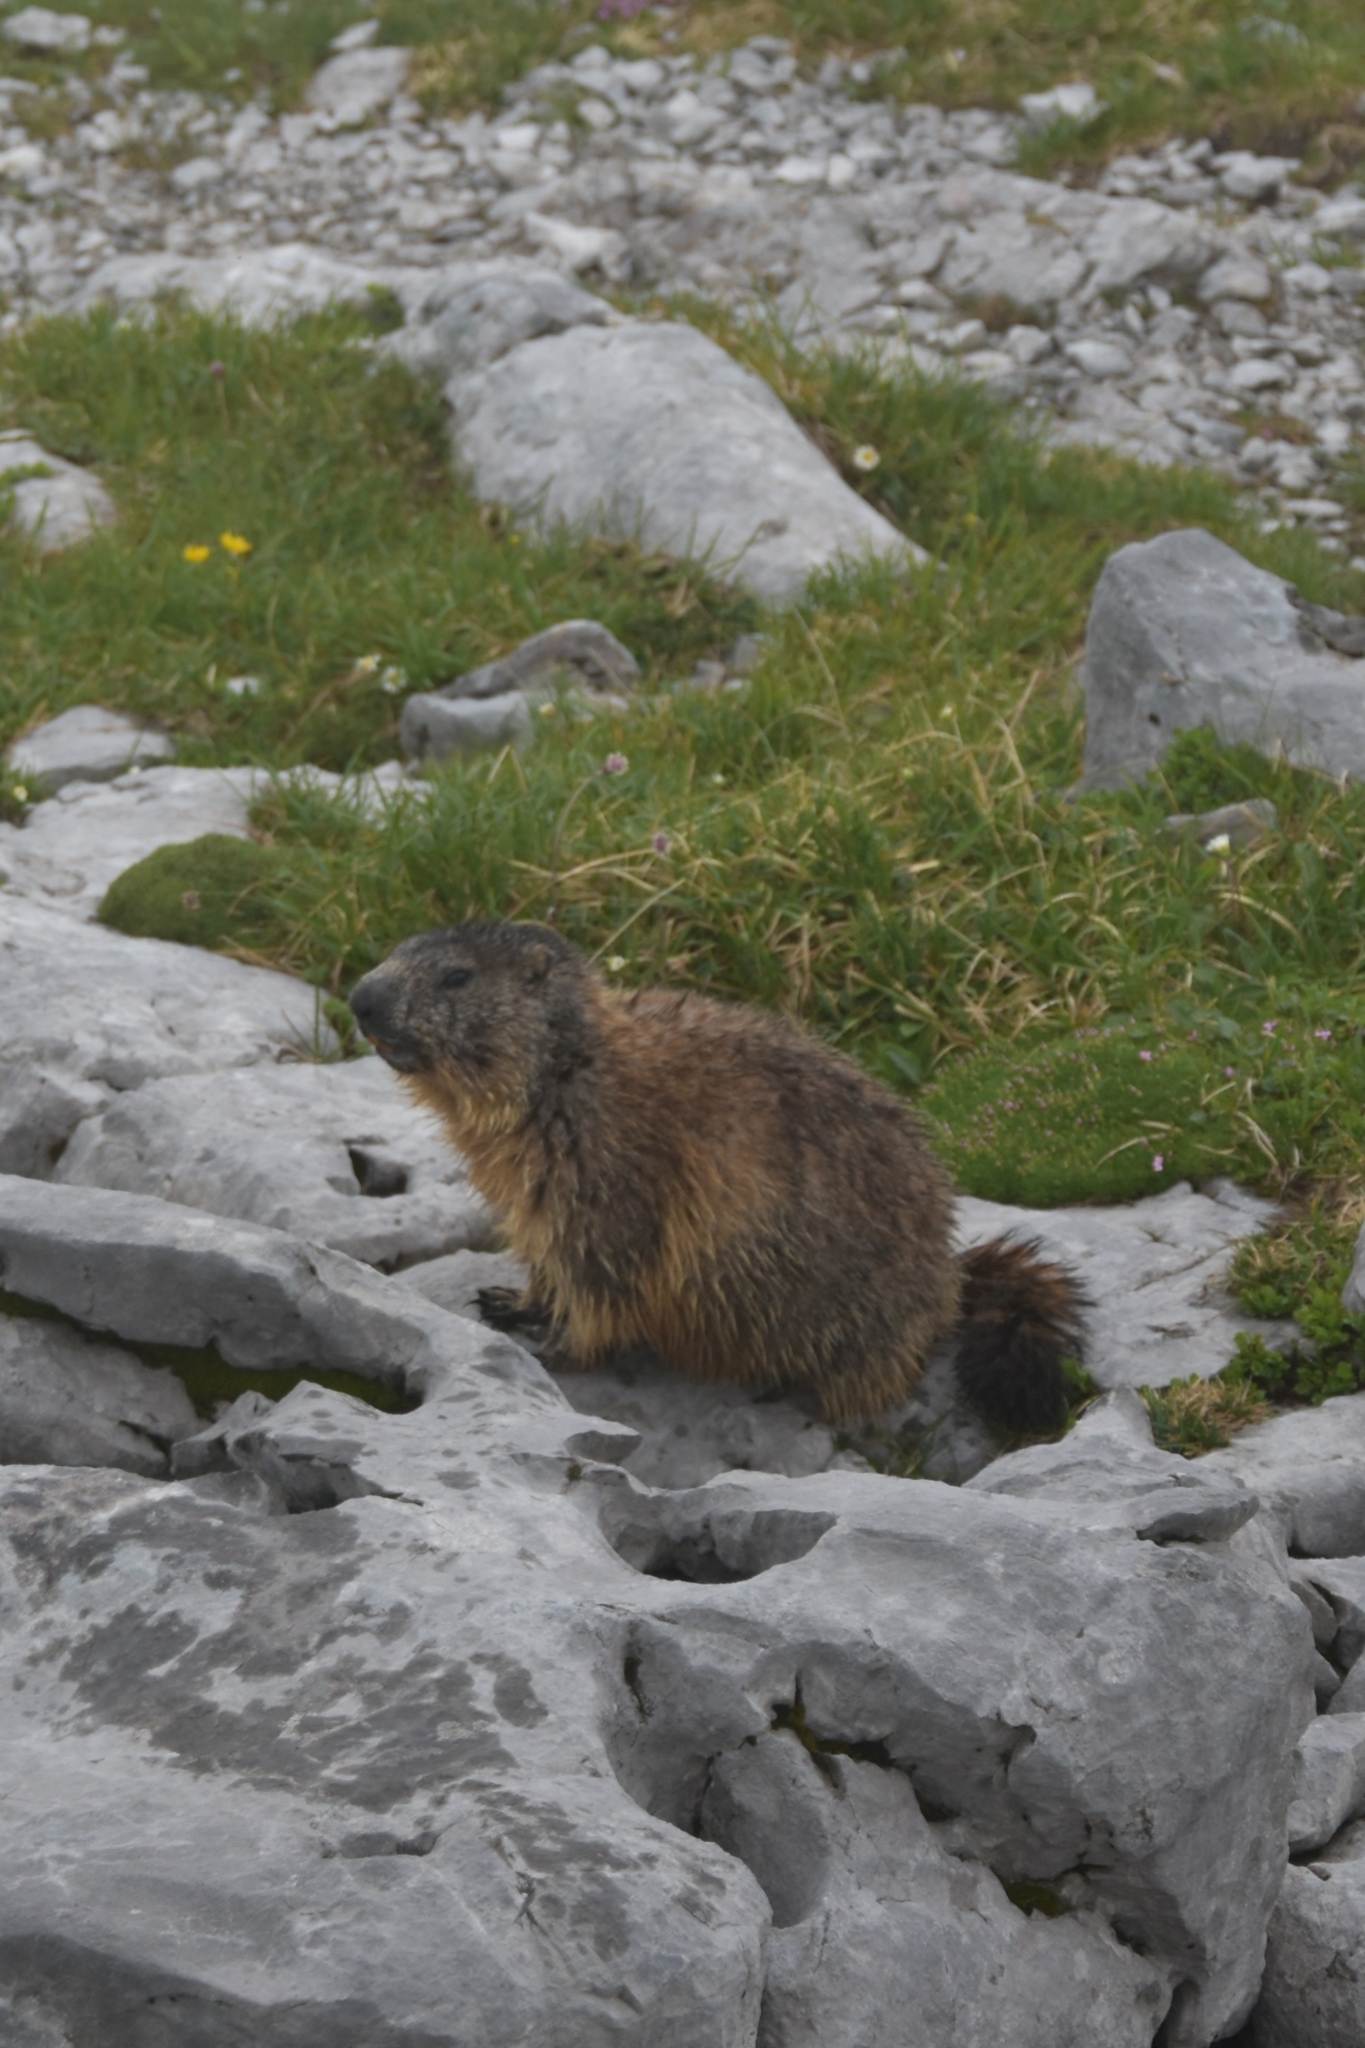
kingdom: Animalia
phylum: Chordata
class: Mammalia
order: Rodentia
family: Sciuridae
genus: Marmota
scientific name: Marmota marmota
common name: Alpine marmot
